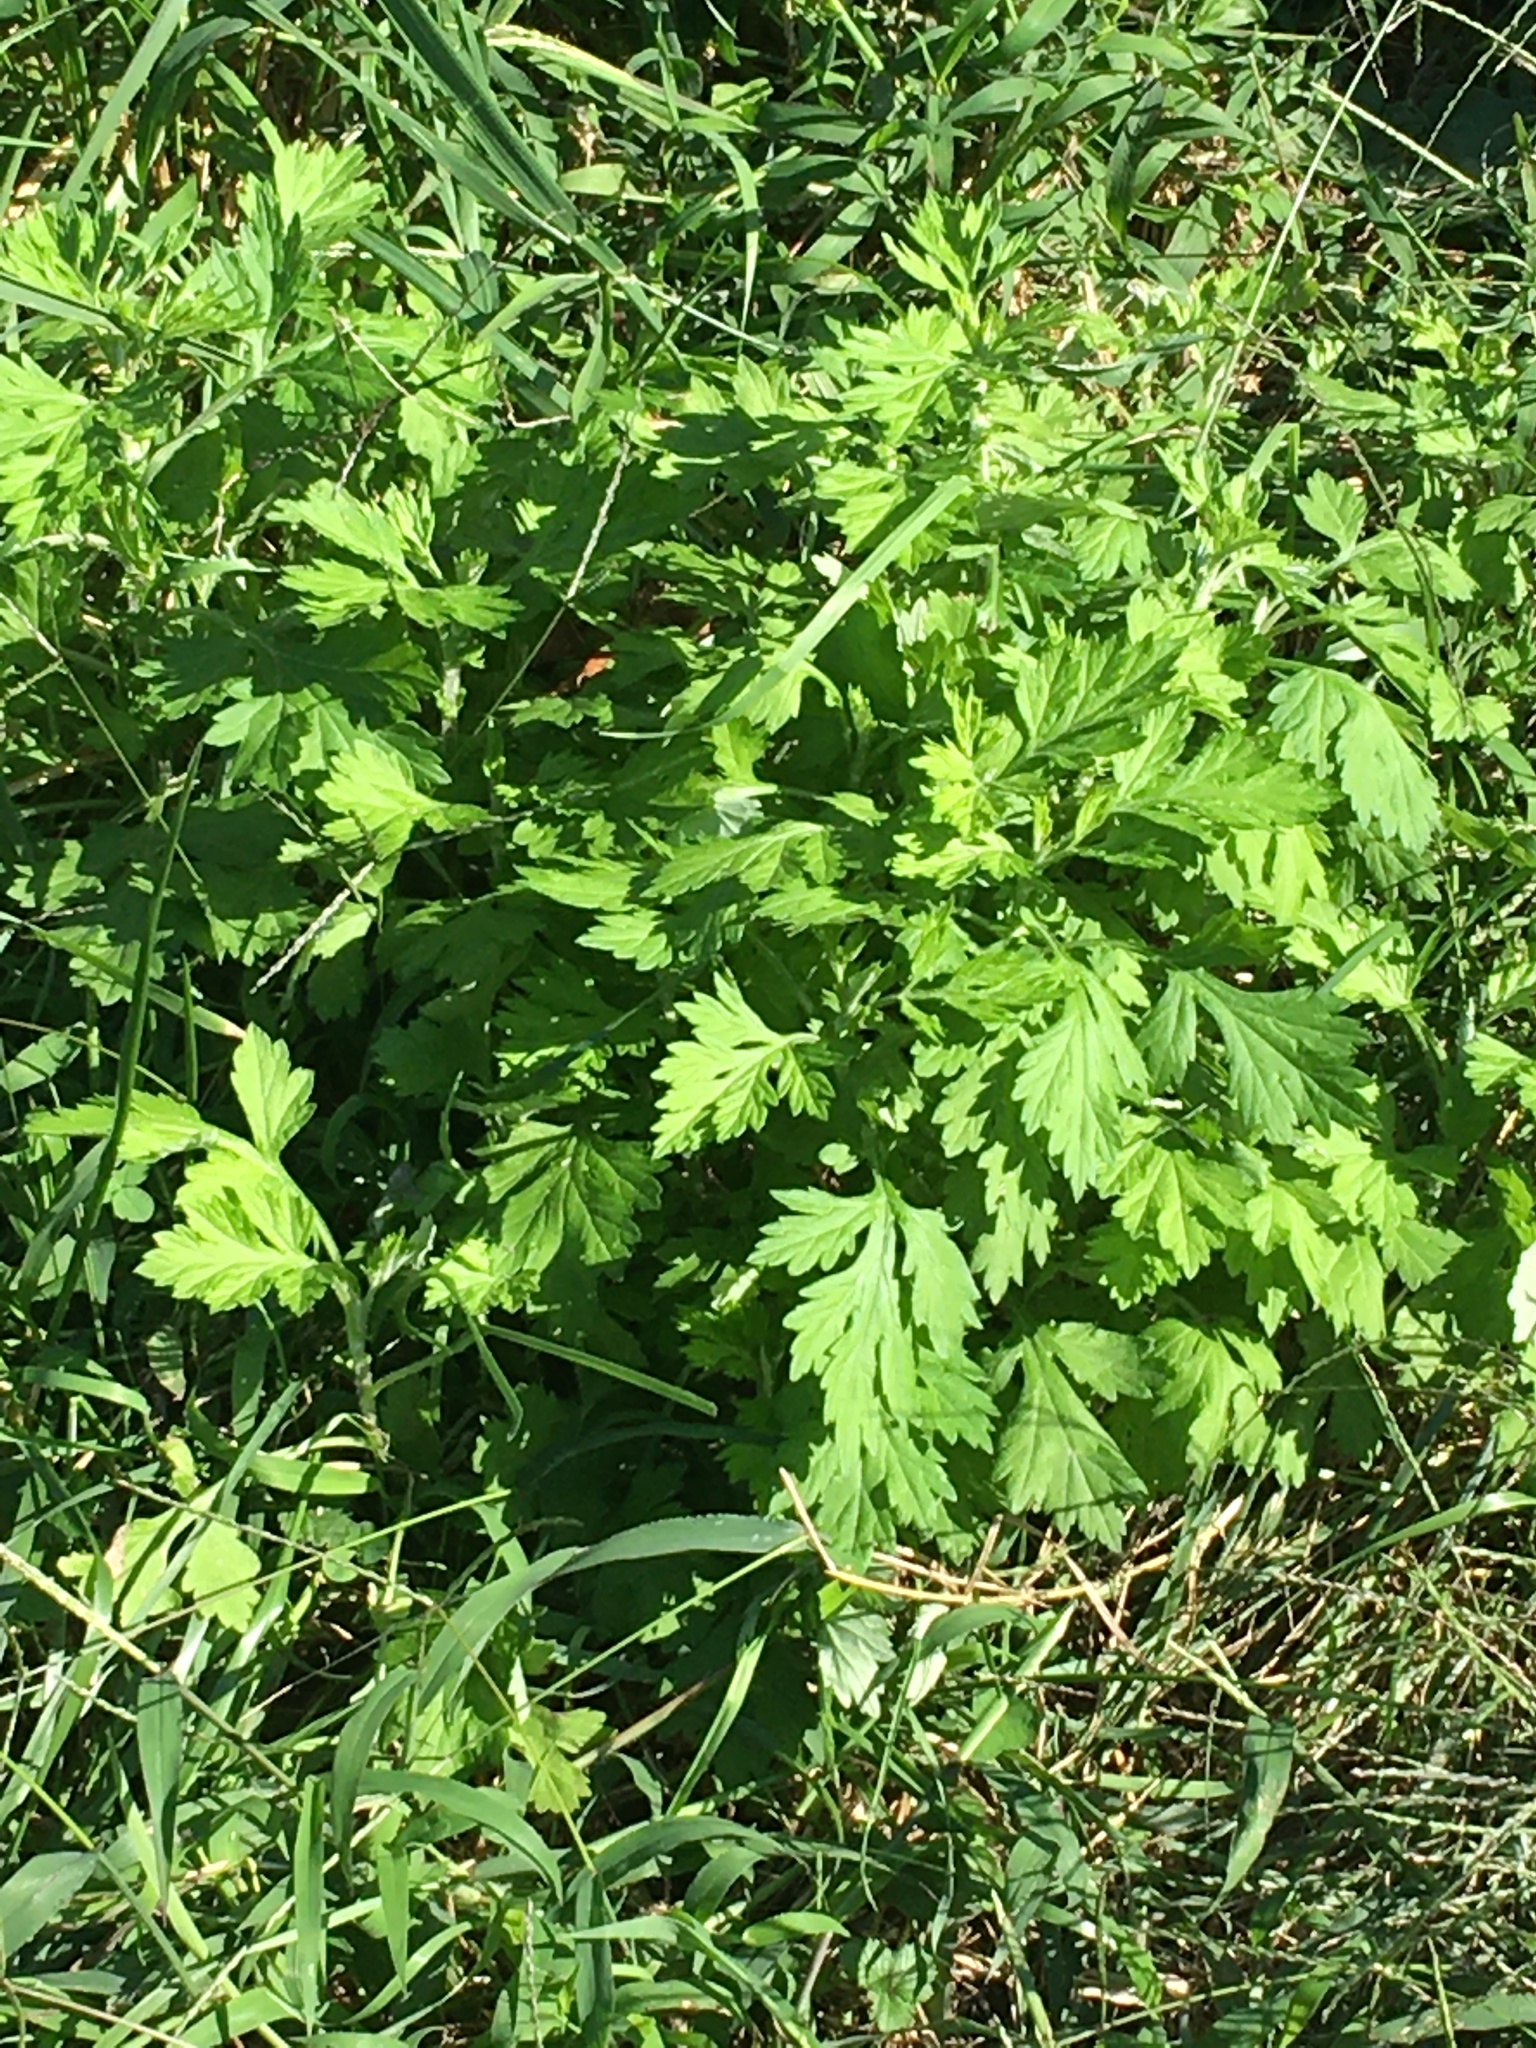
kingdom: Plantae
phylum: Tracheophyta
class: Magnoliopsida
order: Asterales
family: Asteraceae
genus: Artemisia
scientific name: Artemisia vulgaris
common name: Mugwort
